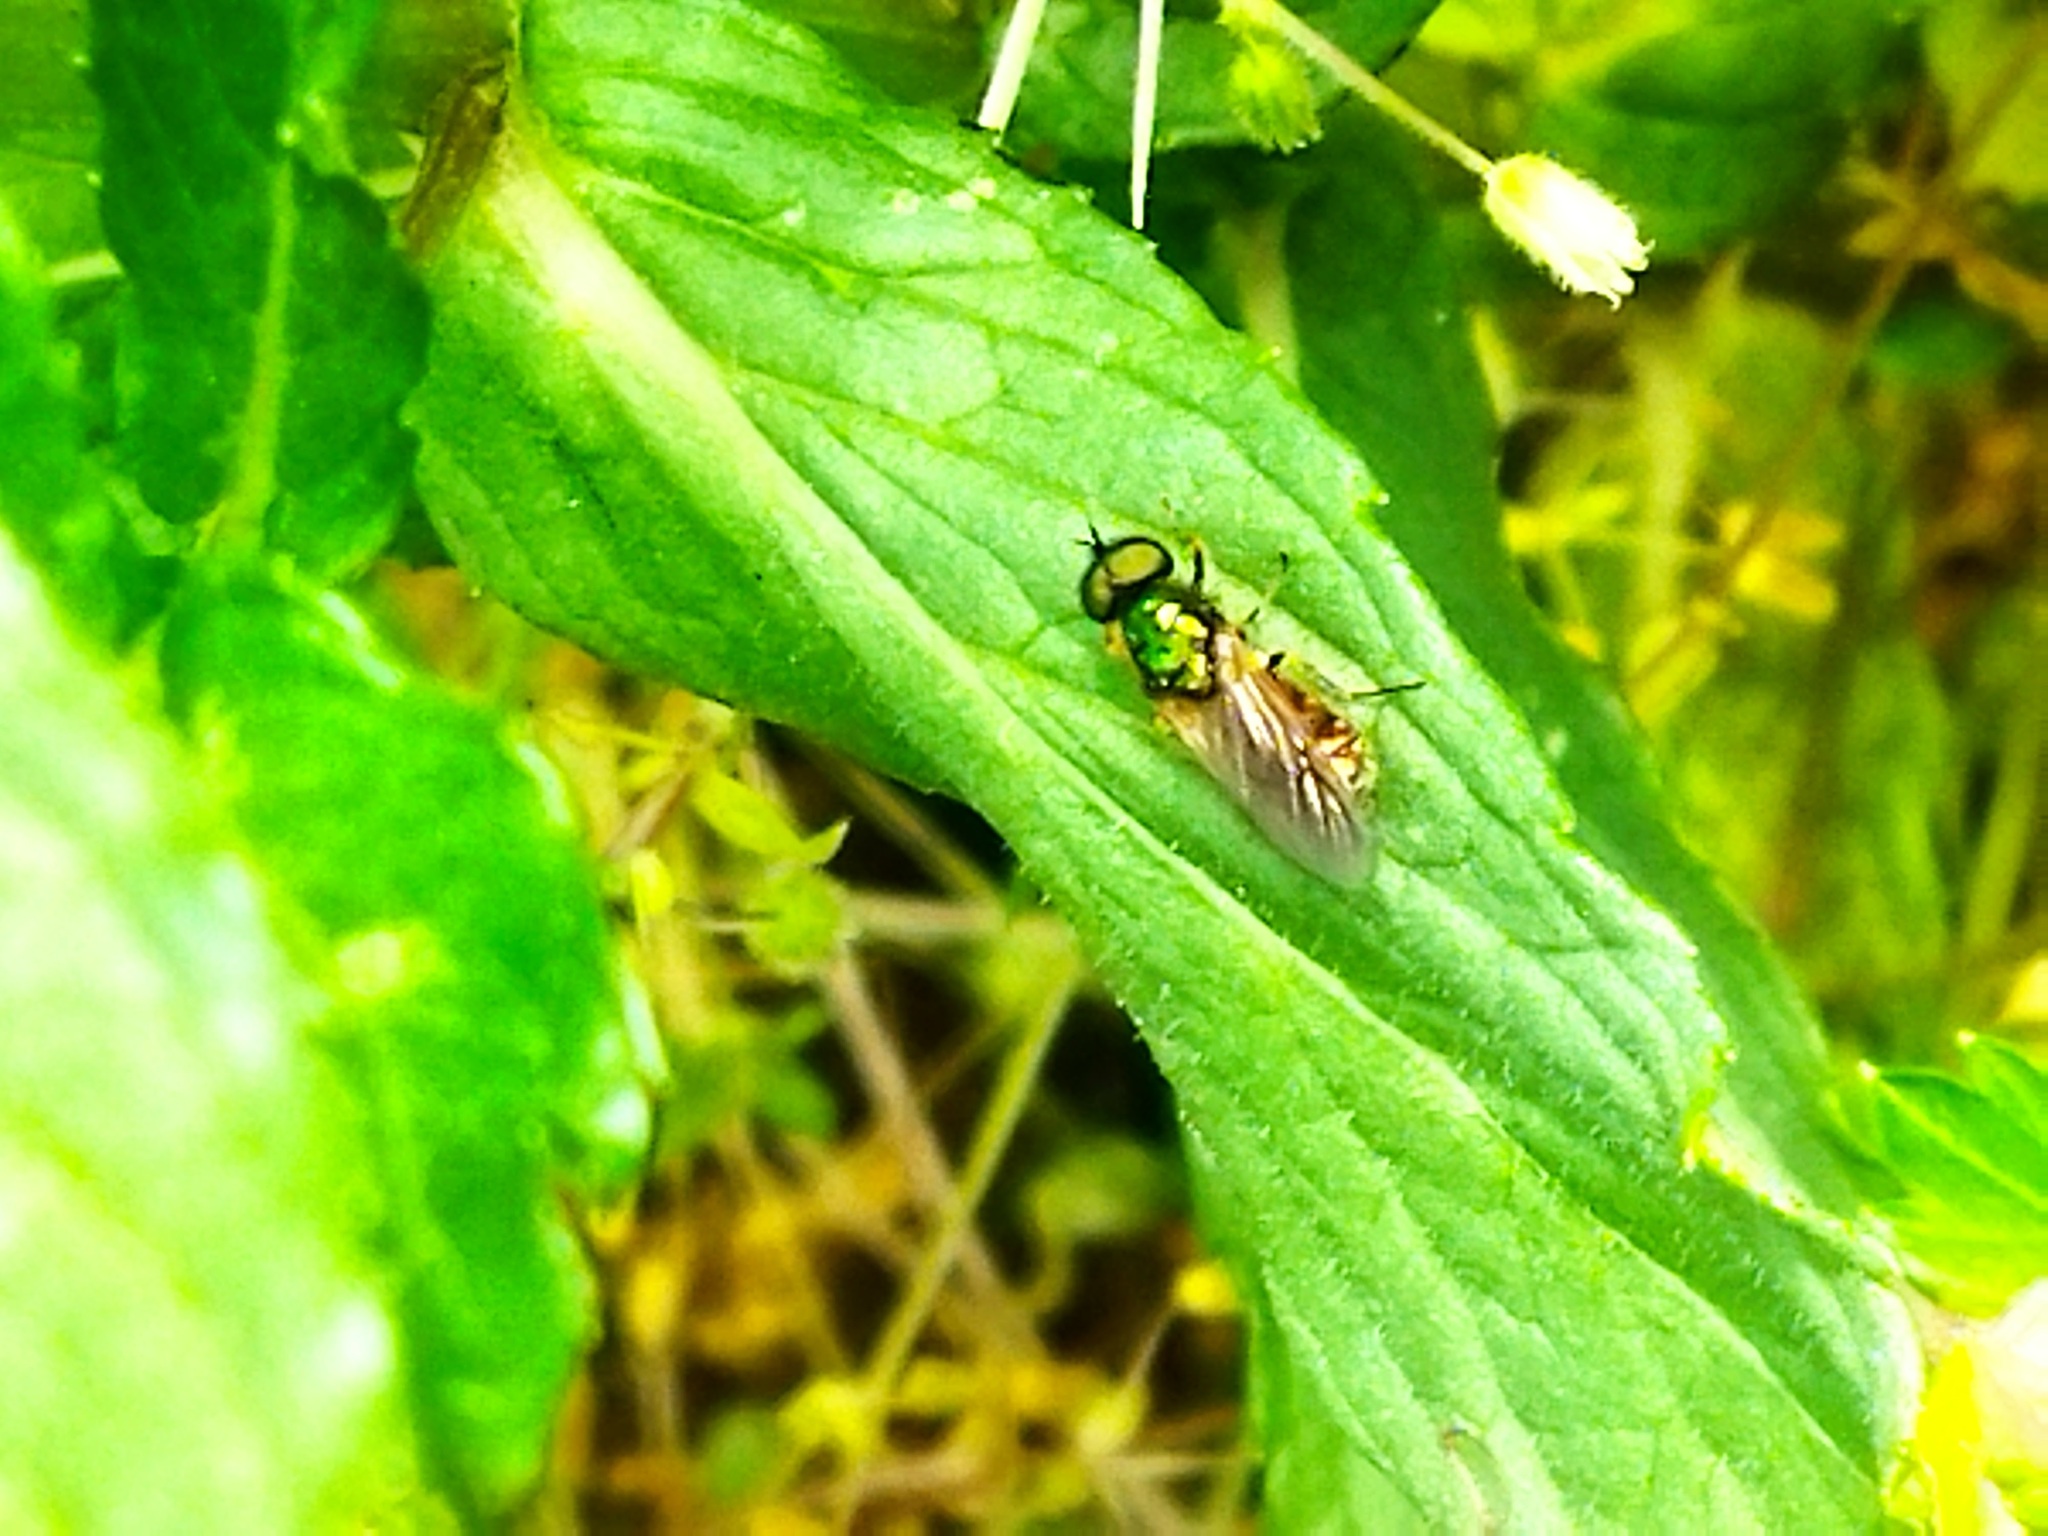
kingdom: Animalia
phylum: Arthropoda
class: Insecta
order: Diptera
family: Stratiomyidae
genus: Chloromyia
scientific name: Chloromyia formosa
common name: Soldier fly
